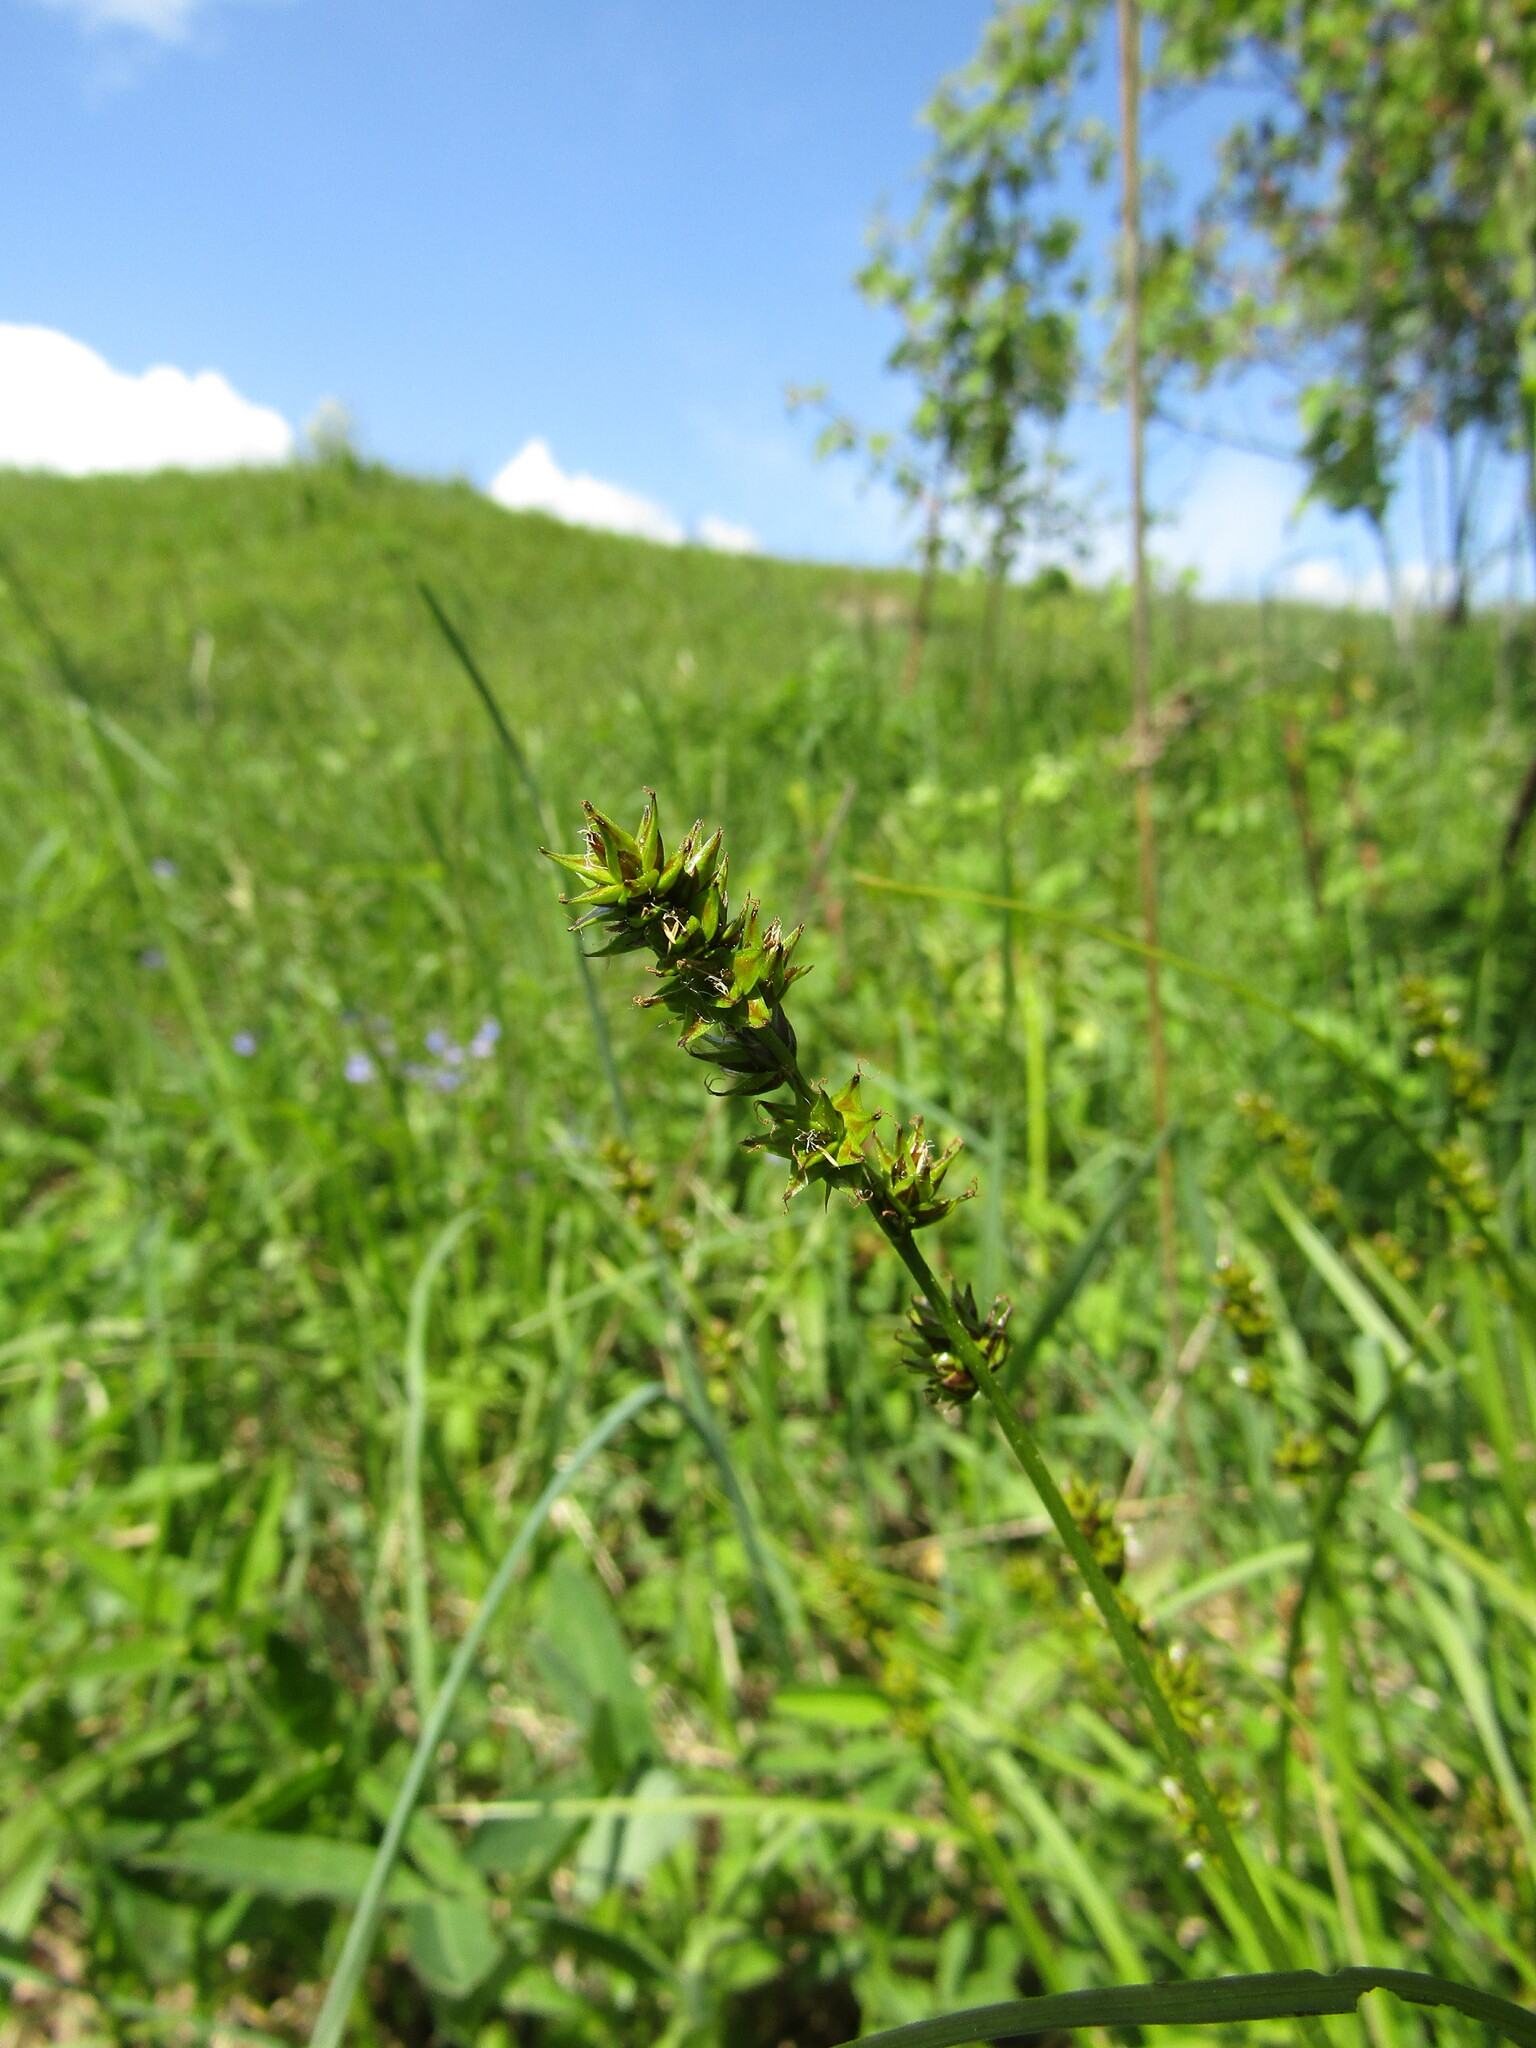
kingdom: Plantae
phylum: Tracheophyta
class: Liliopsida
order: Poales
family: Cyperaceae
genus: Carex
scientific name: Carex muricata
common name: Rough sedge
